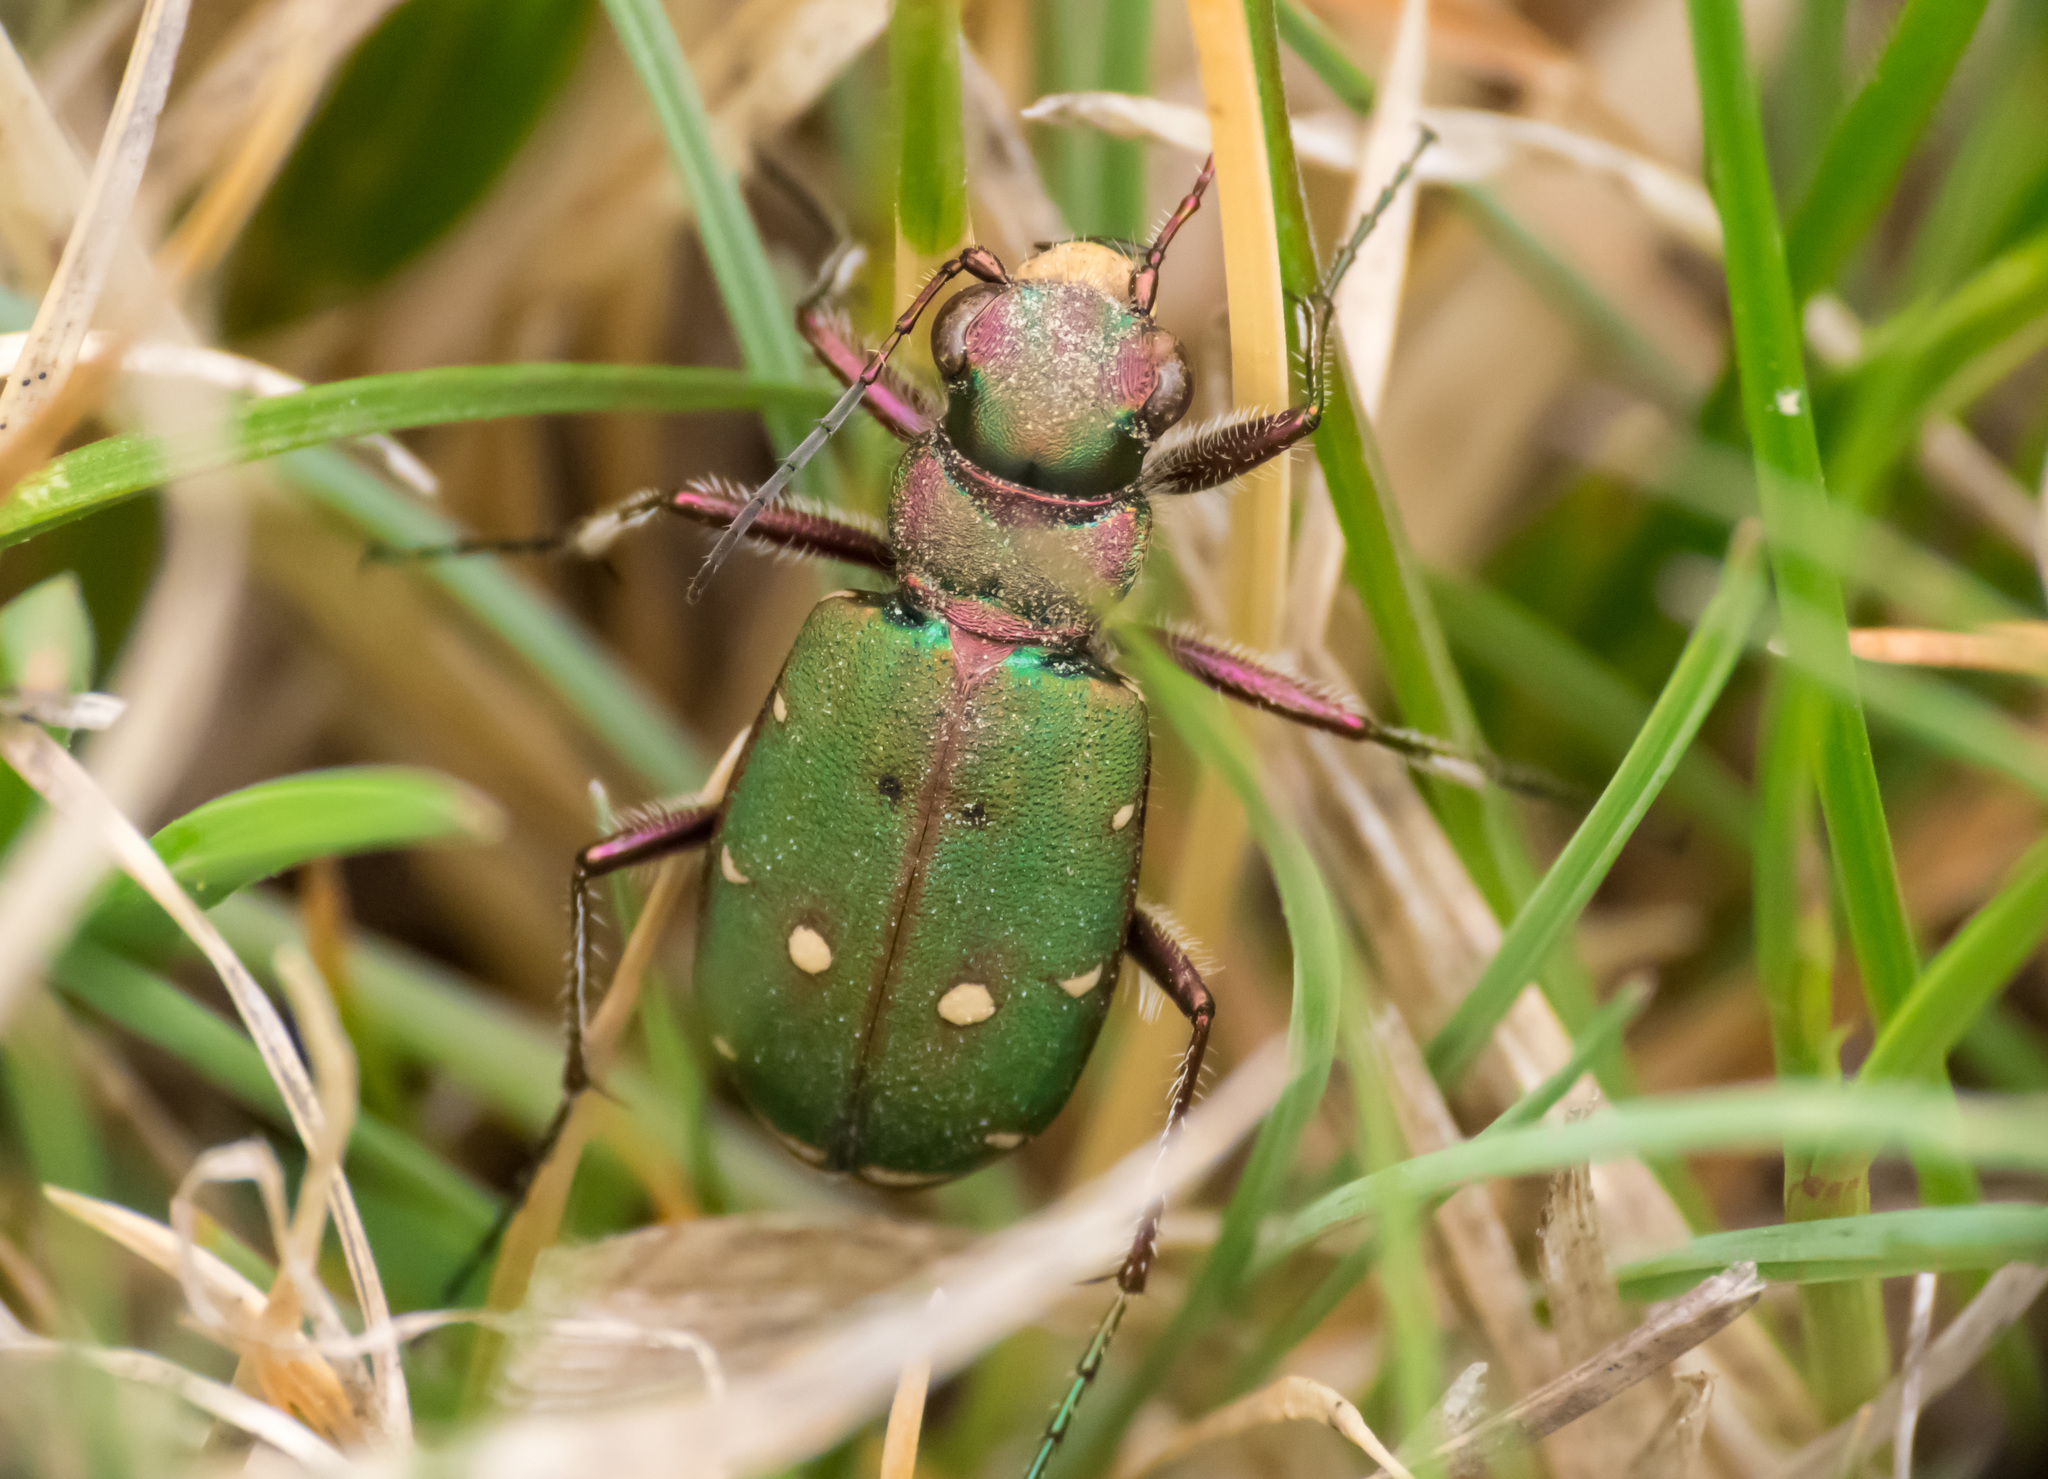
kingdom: Animalia
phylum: Arthropoda
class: Insecta
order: Coleoptera
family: Carabidae
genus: Cicindela
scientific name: Cicindela campestris
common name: Common tiger beetle
